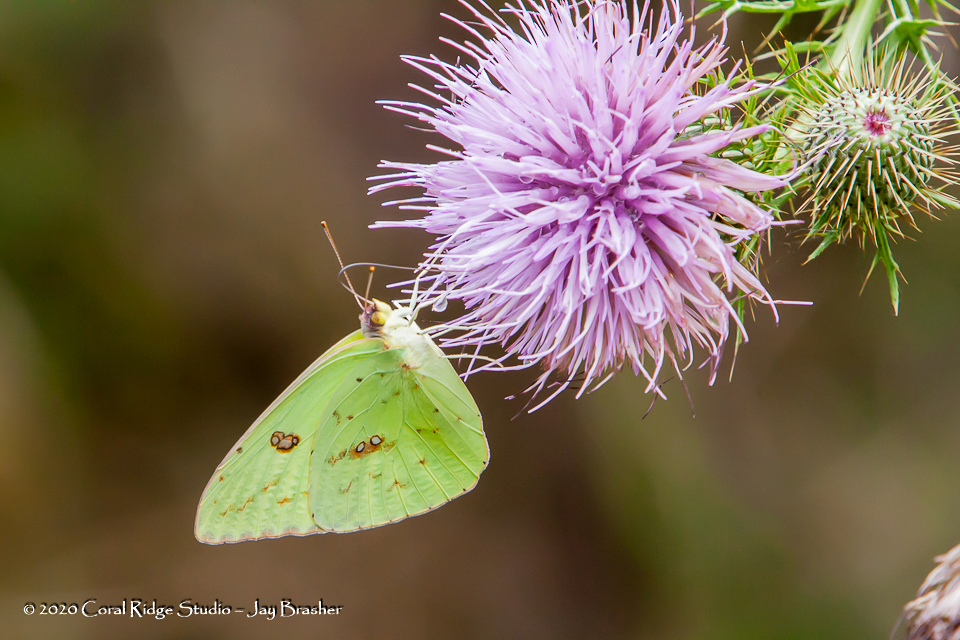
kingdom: Animalia
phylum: Arthropoda
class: Insecta
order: Lepidoptera
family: Pieridae
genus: Phoebis
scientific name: Phoebis sennae
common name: Cloudless sulphur
